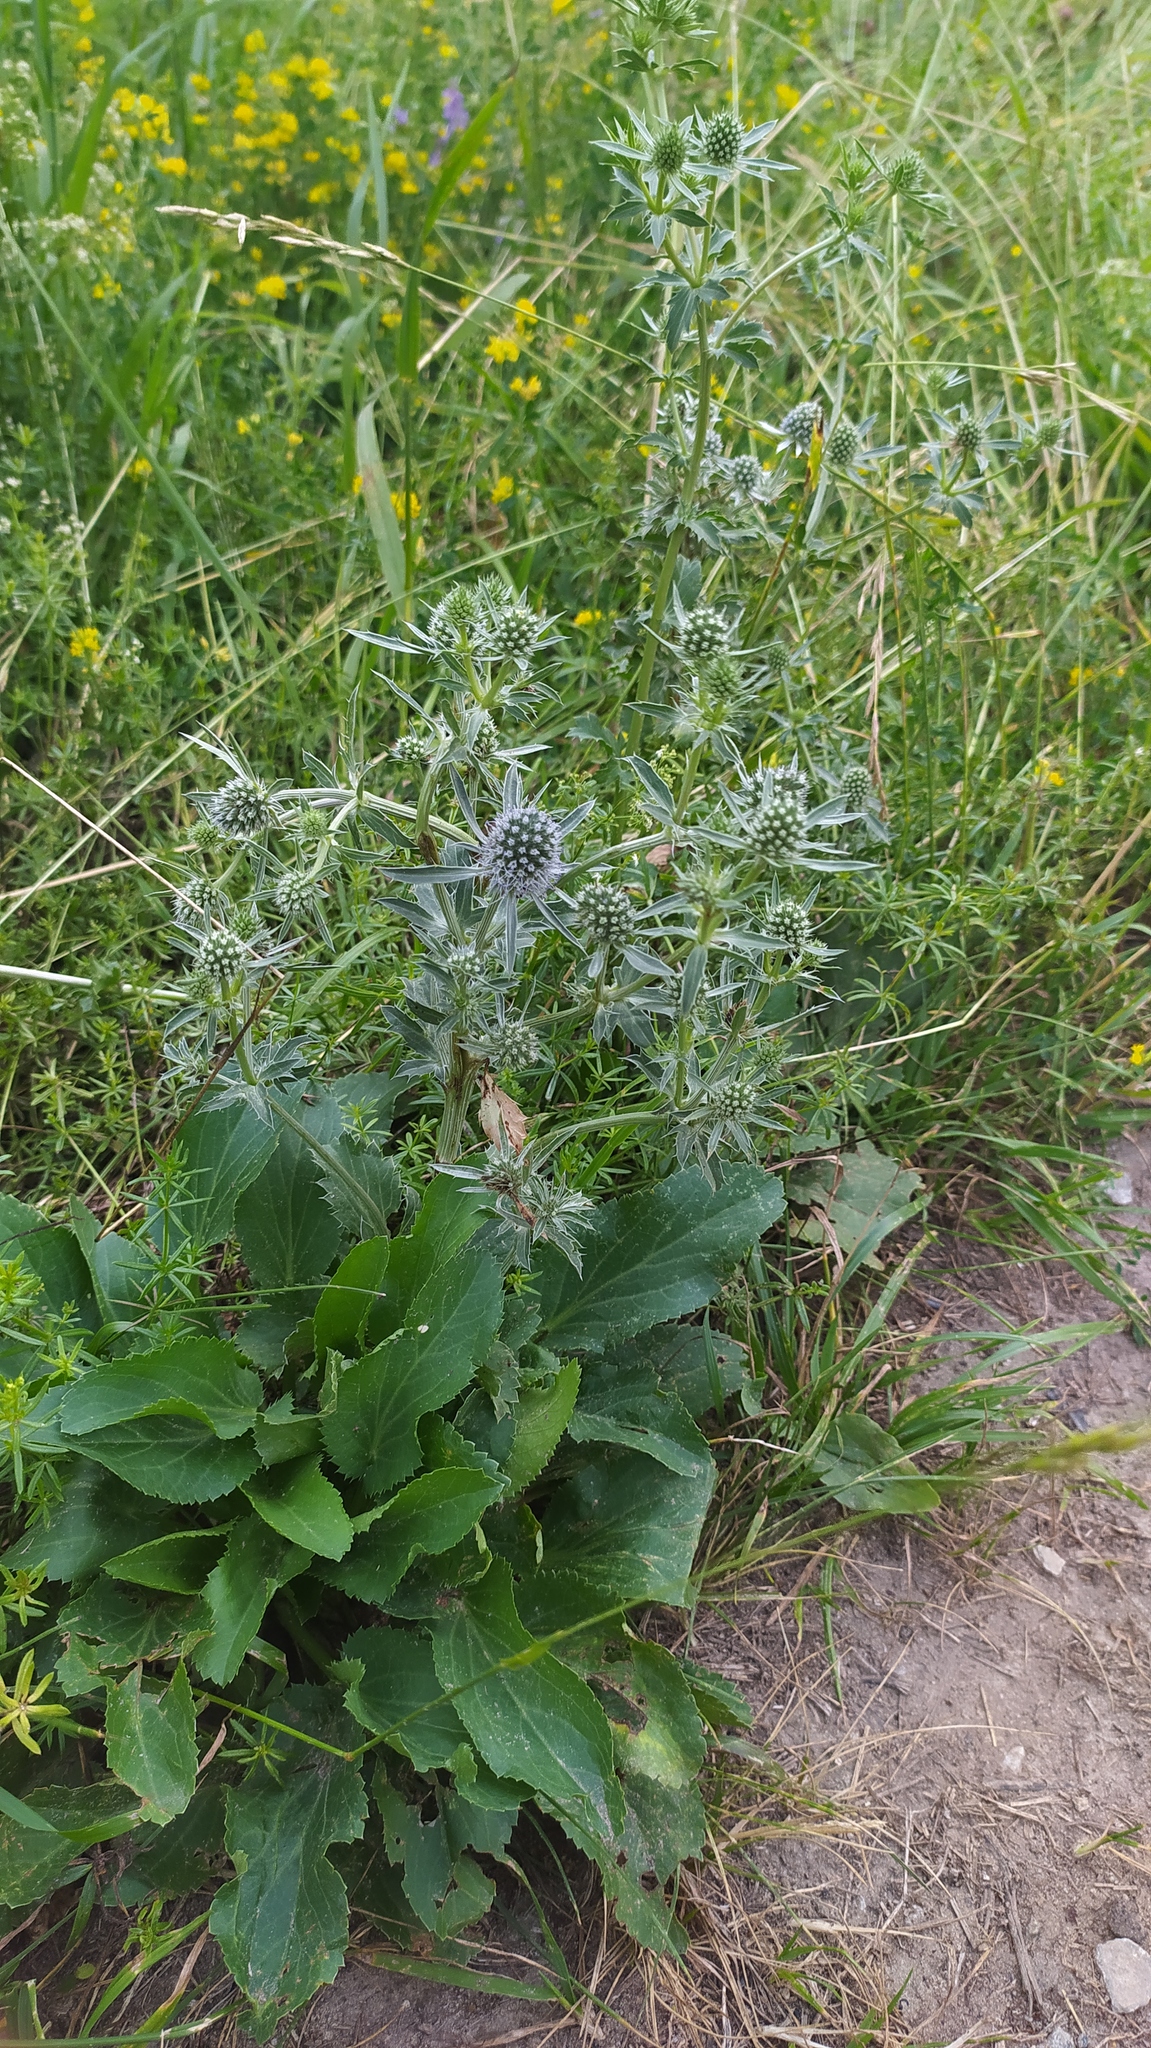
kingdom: Plantae
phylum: Tracheophyta
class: Magnoliopsida
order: Apiales
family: Apiaceae
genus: Eryngium
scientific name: Eryngium planum
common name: Blue eryngo
